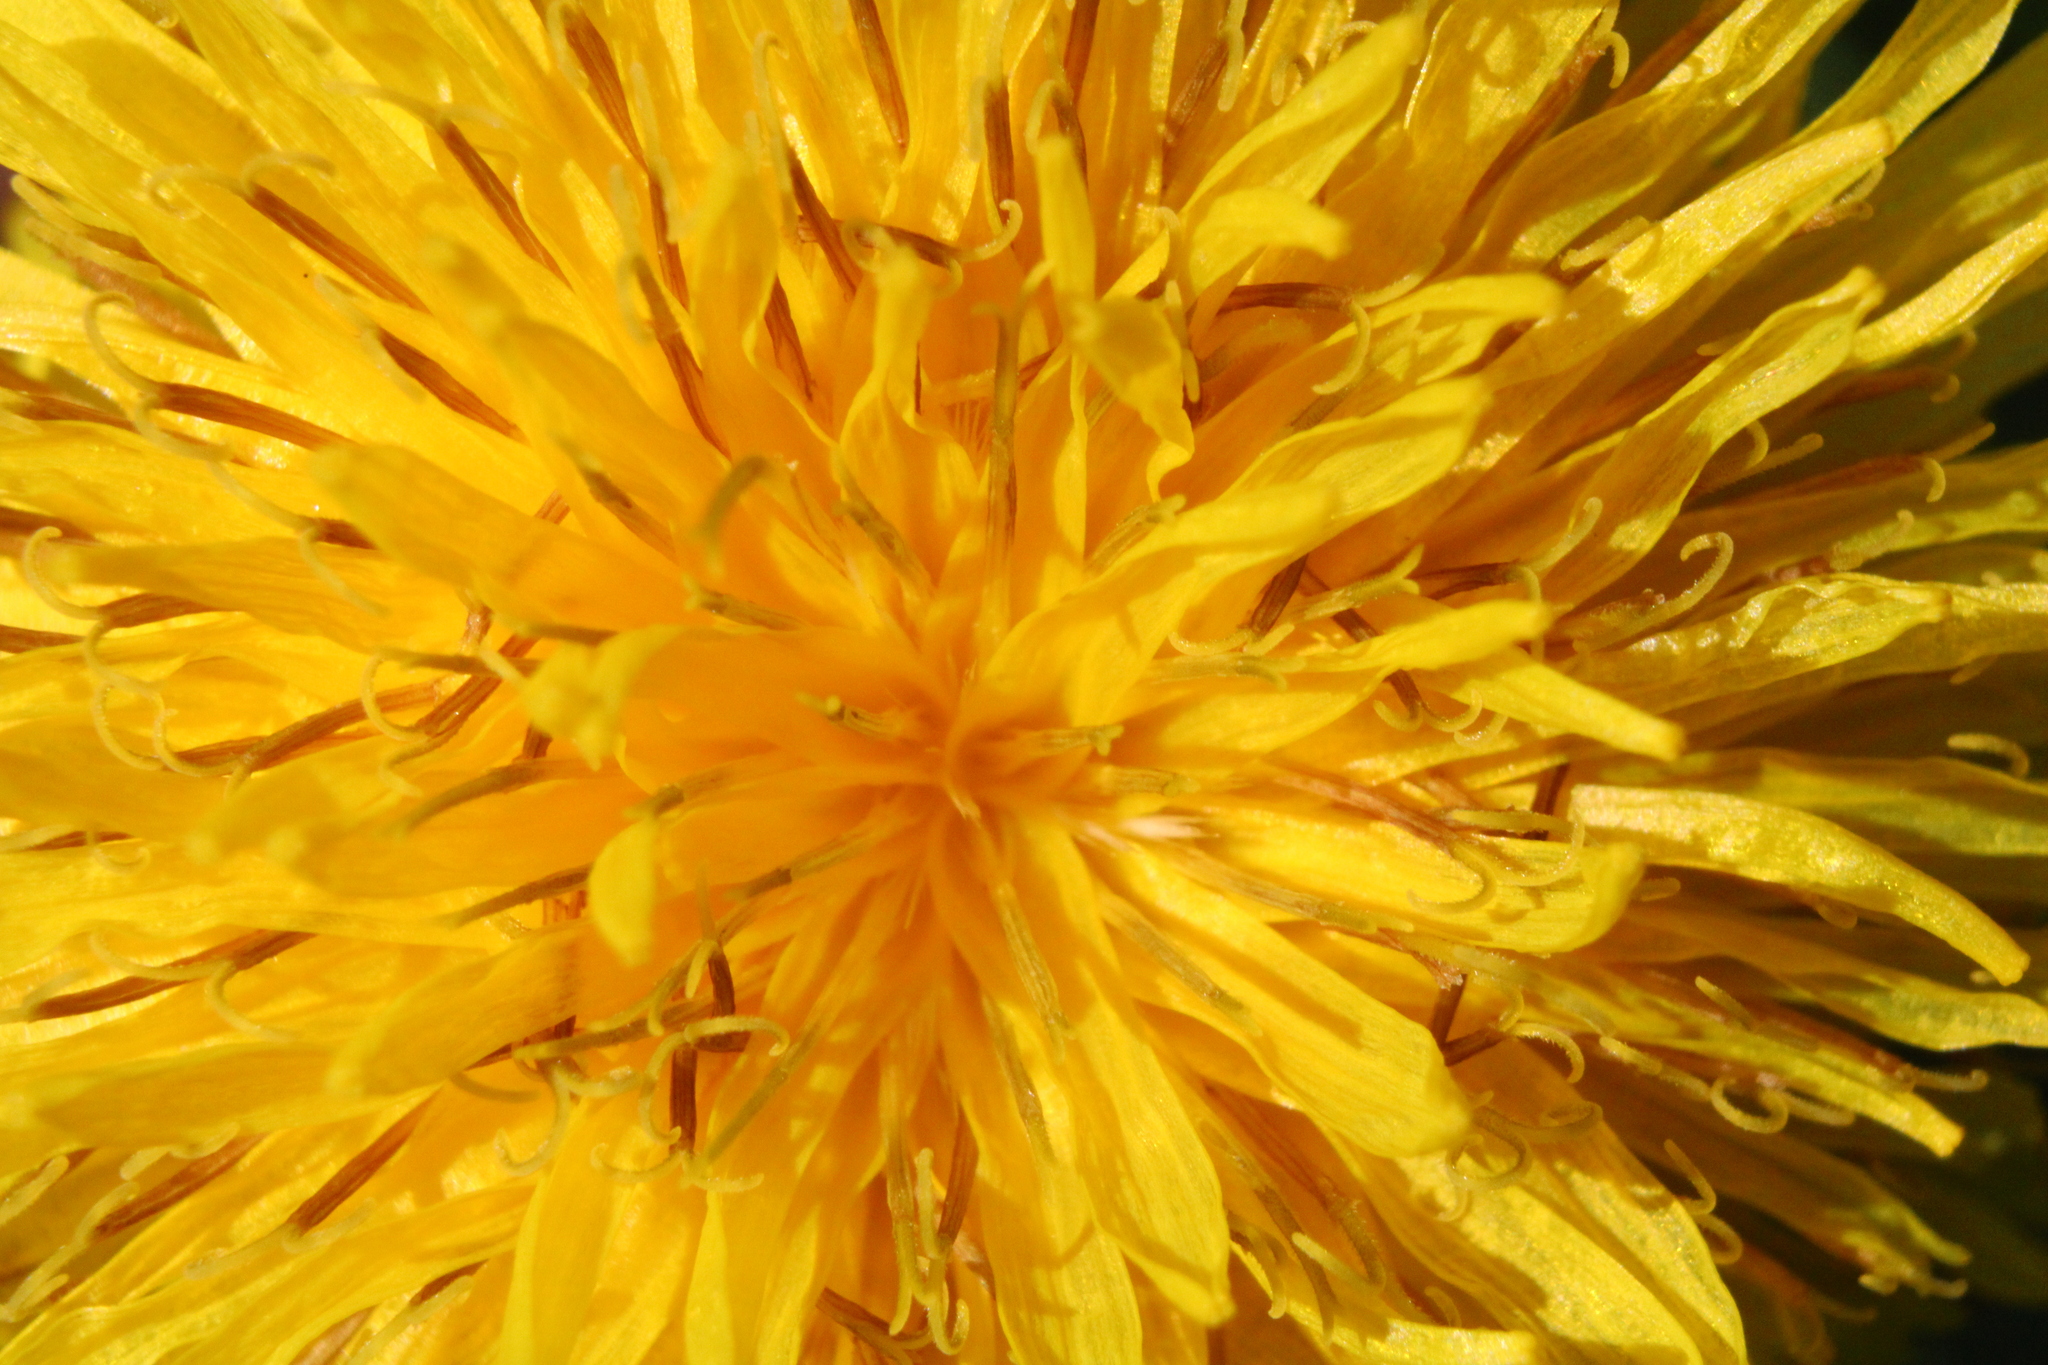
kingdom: Plantae
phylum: Tracheophyta
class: Magnoliopsida
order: Asterales
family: Asteraceae
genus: Taraxacum
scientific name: Taraxacum
